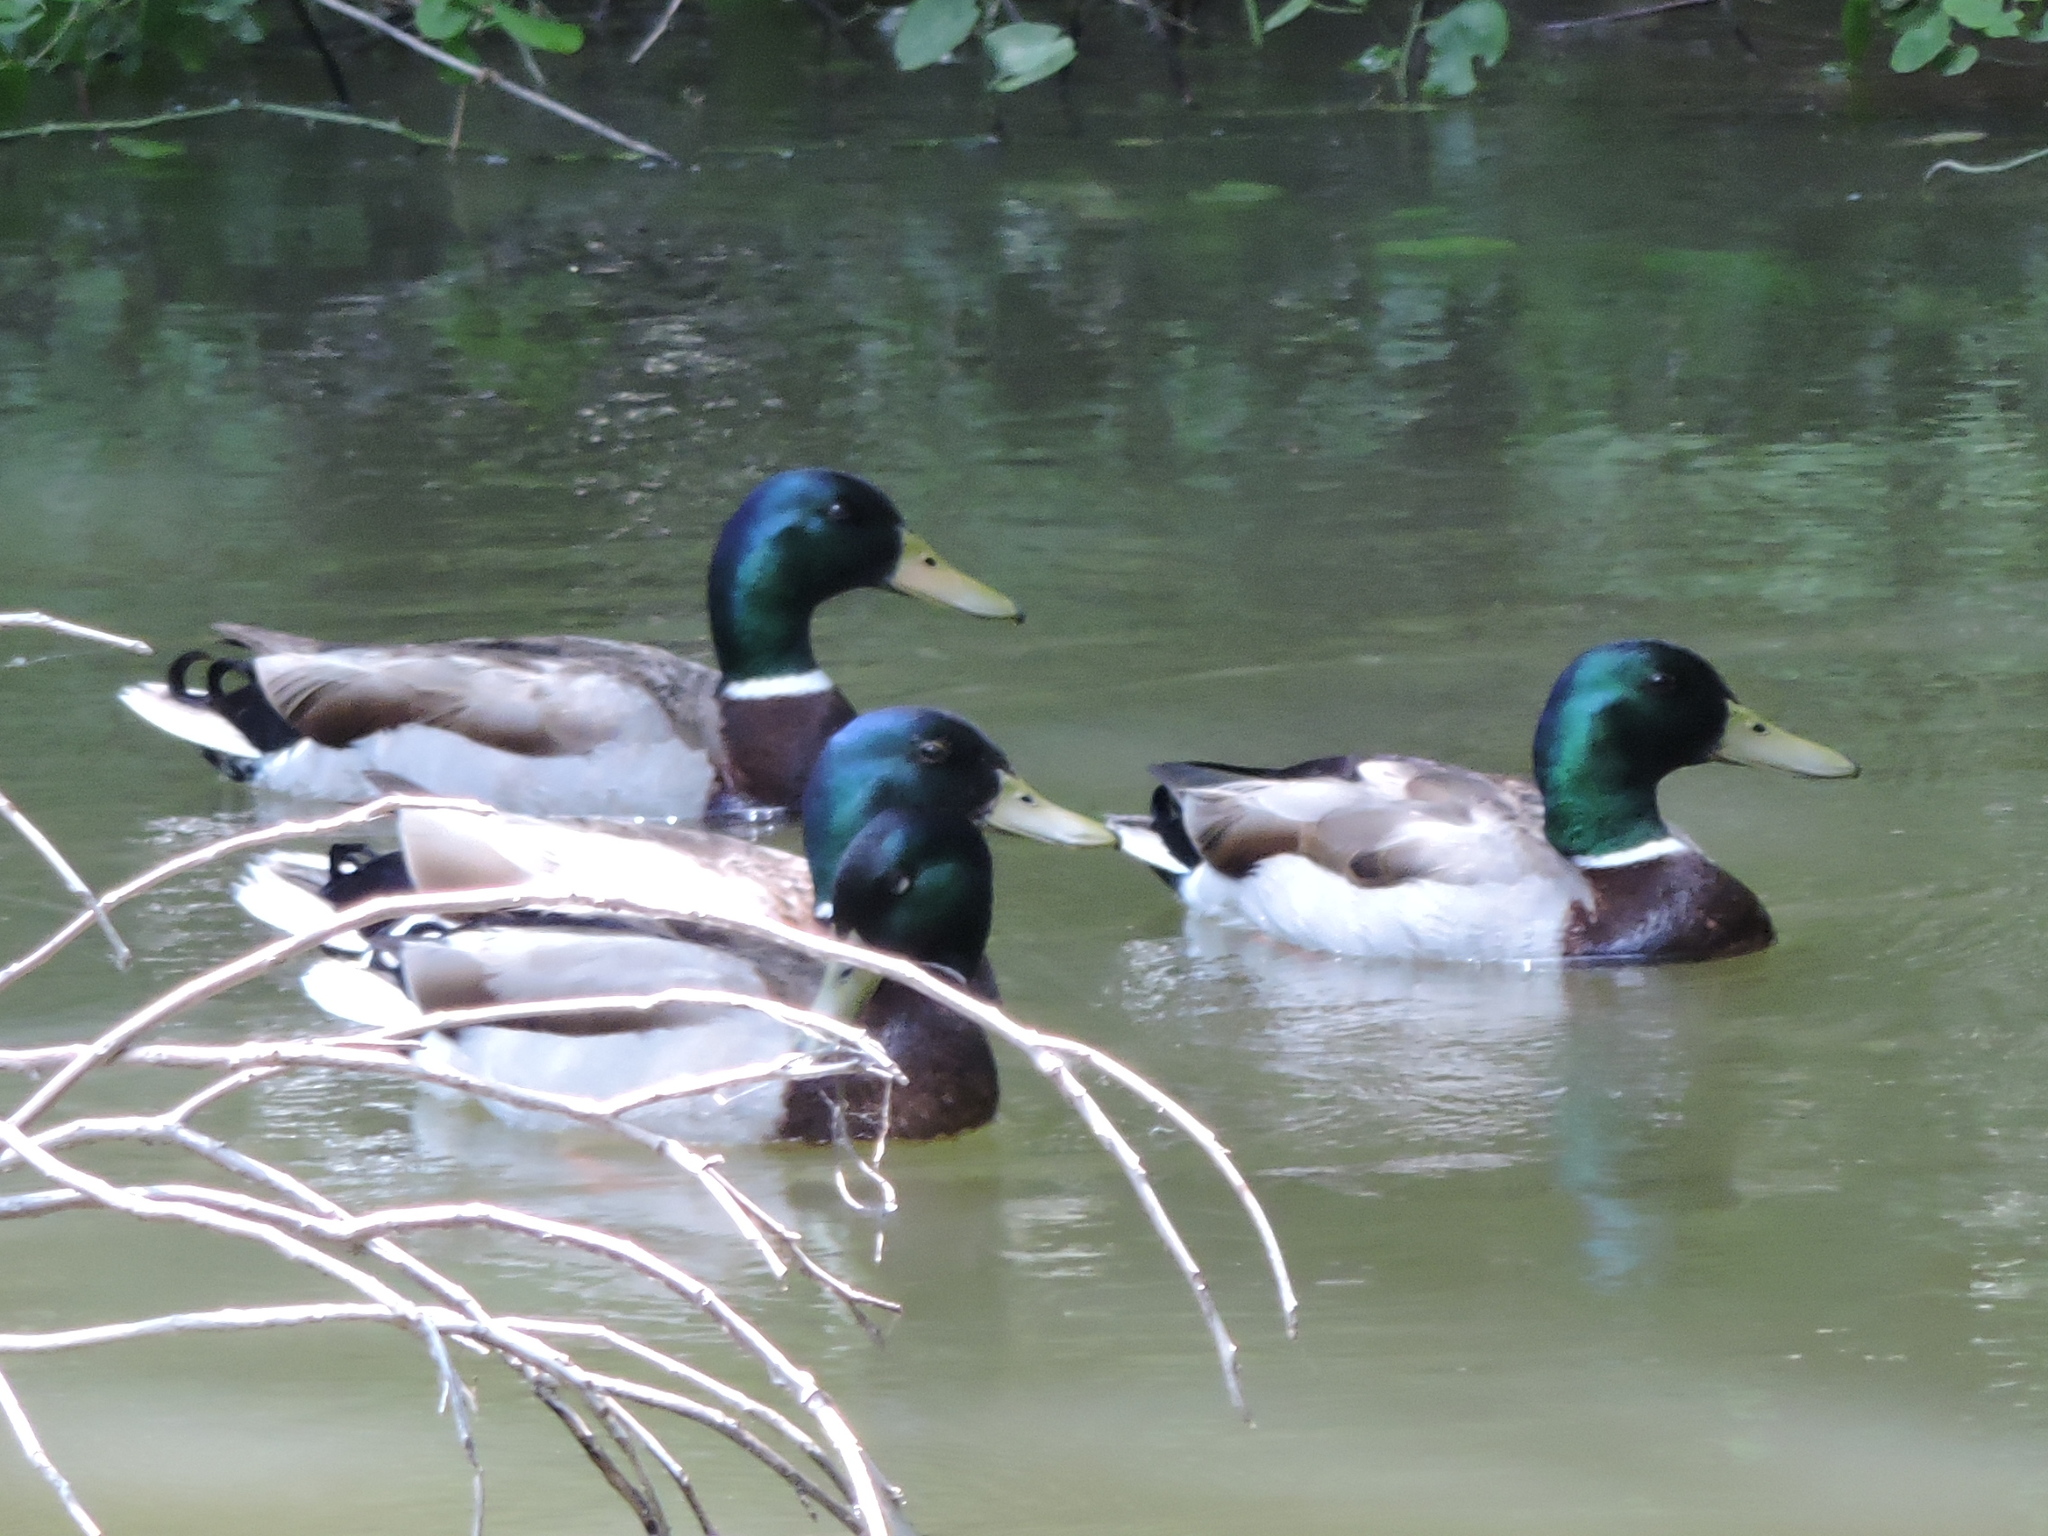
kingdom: Animalia
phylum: Chordata
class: Aves
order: Anseriformes
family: Anatidae
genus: Anas
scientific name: Anas platyrhynchos
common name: Mallard
